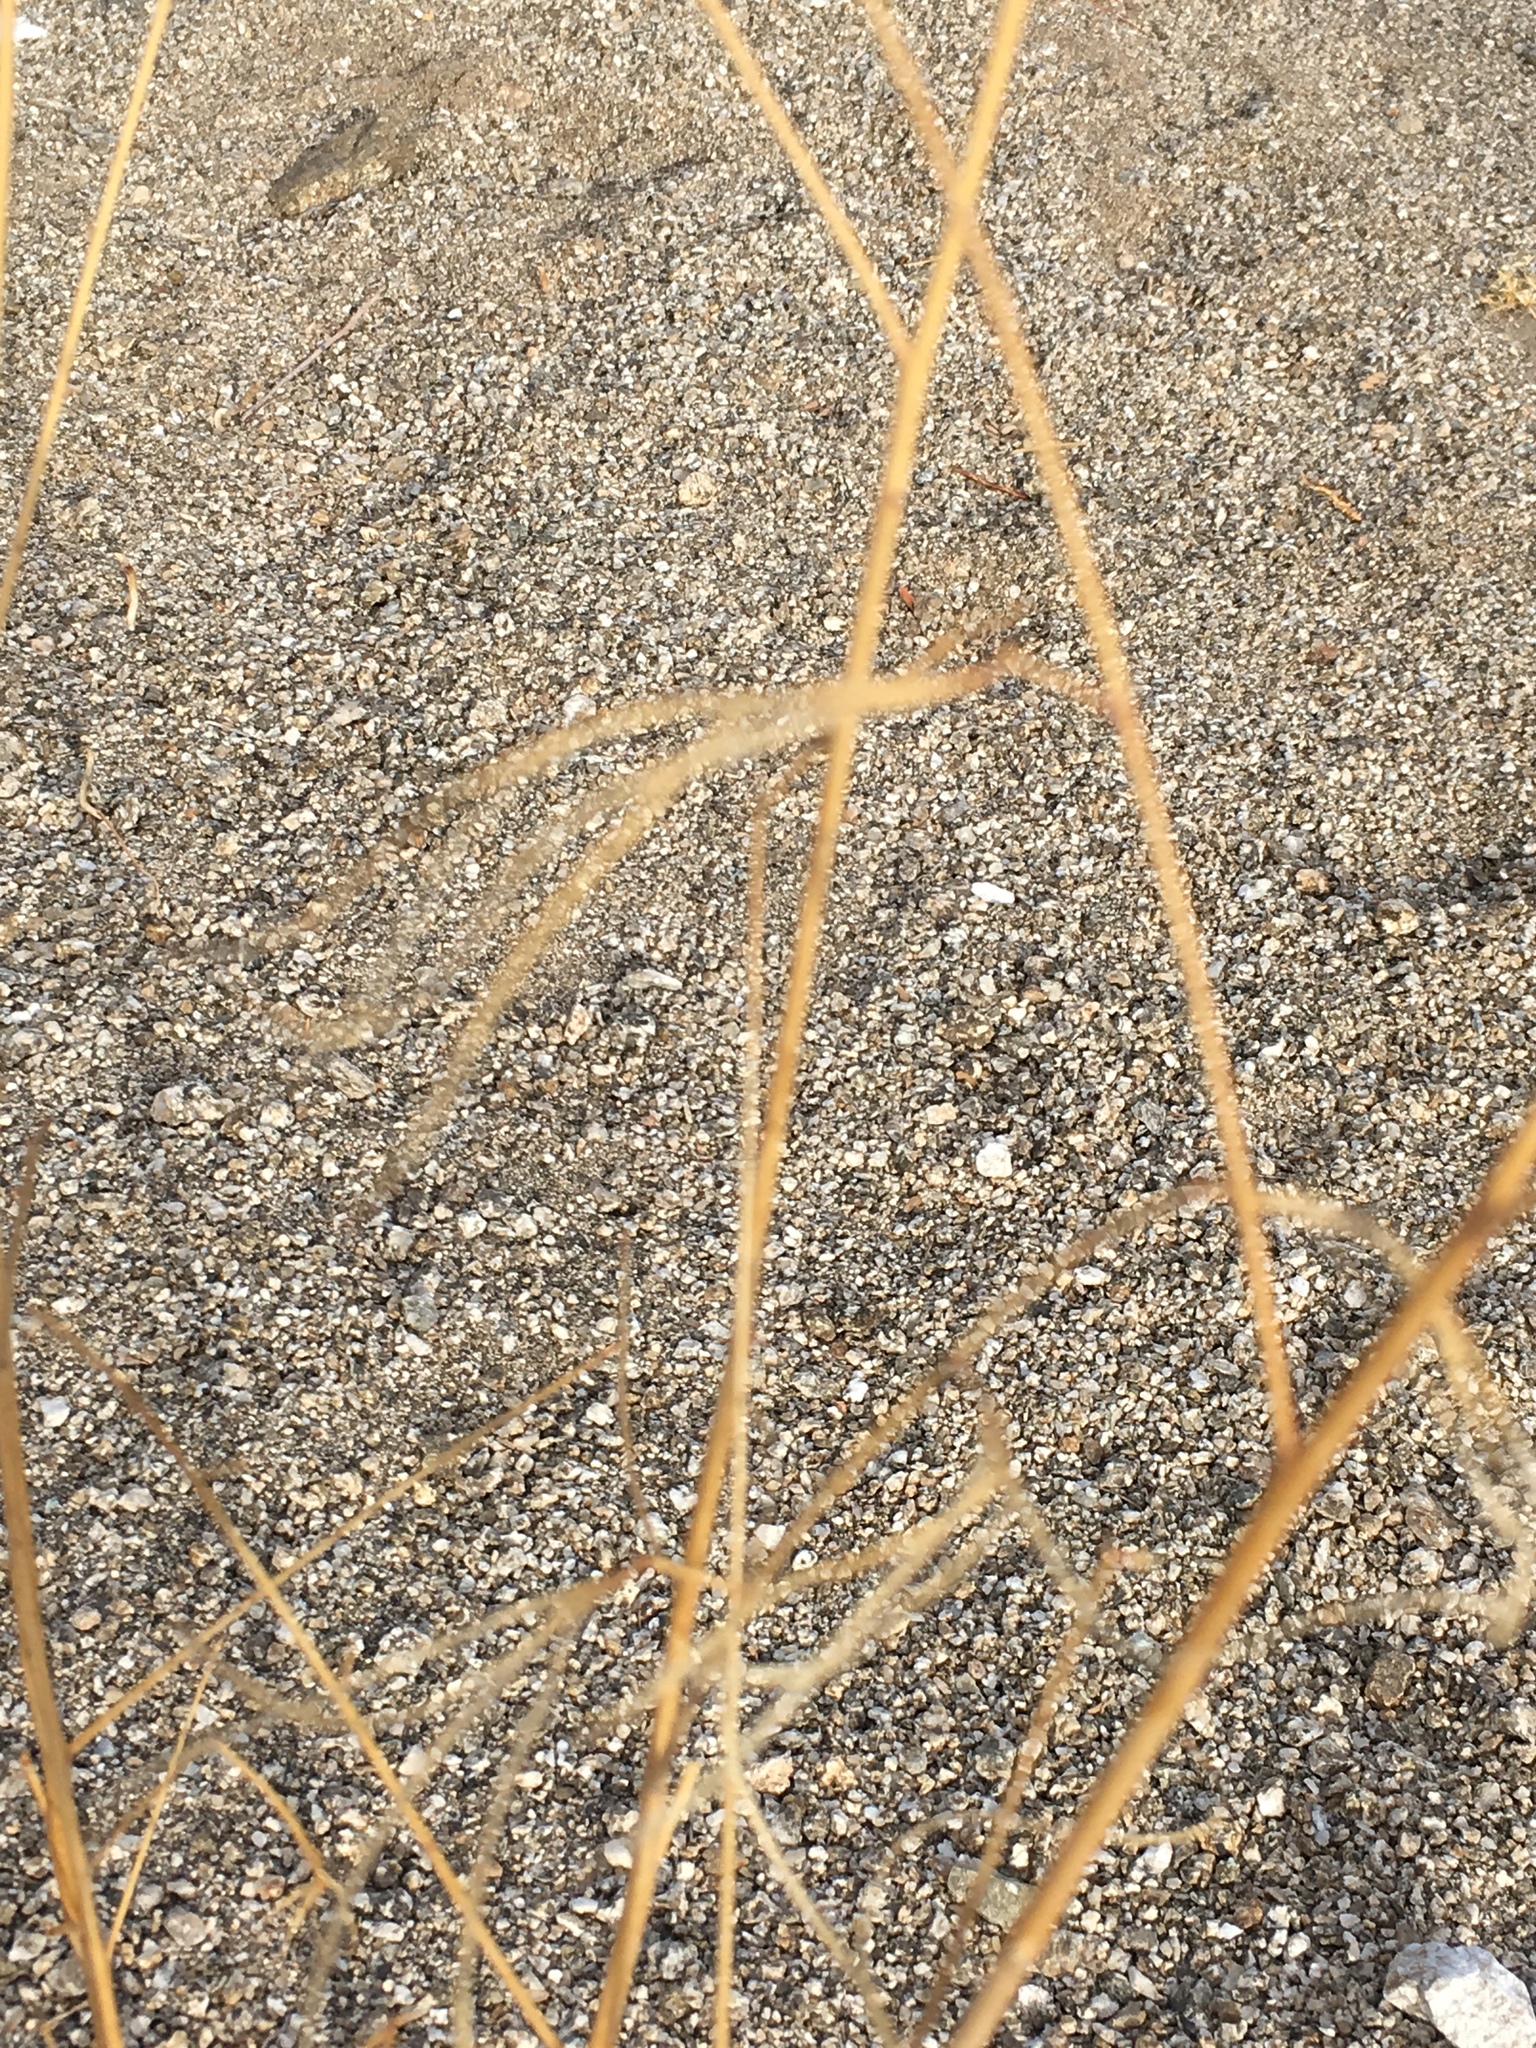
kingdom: Plantae
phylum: Tracheophyta
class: Magnoliopsida
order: Myrtales
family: Onagraceae
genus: Eulobus
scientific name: Eulobus californicus
